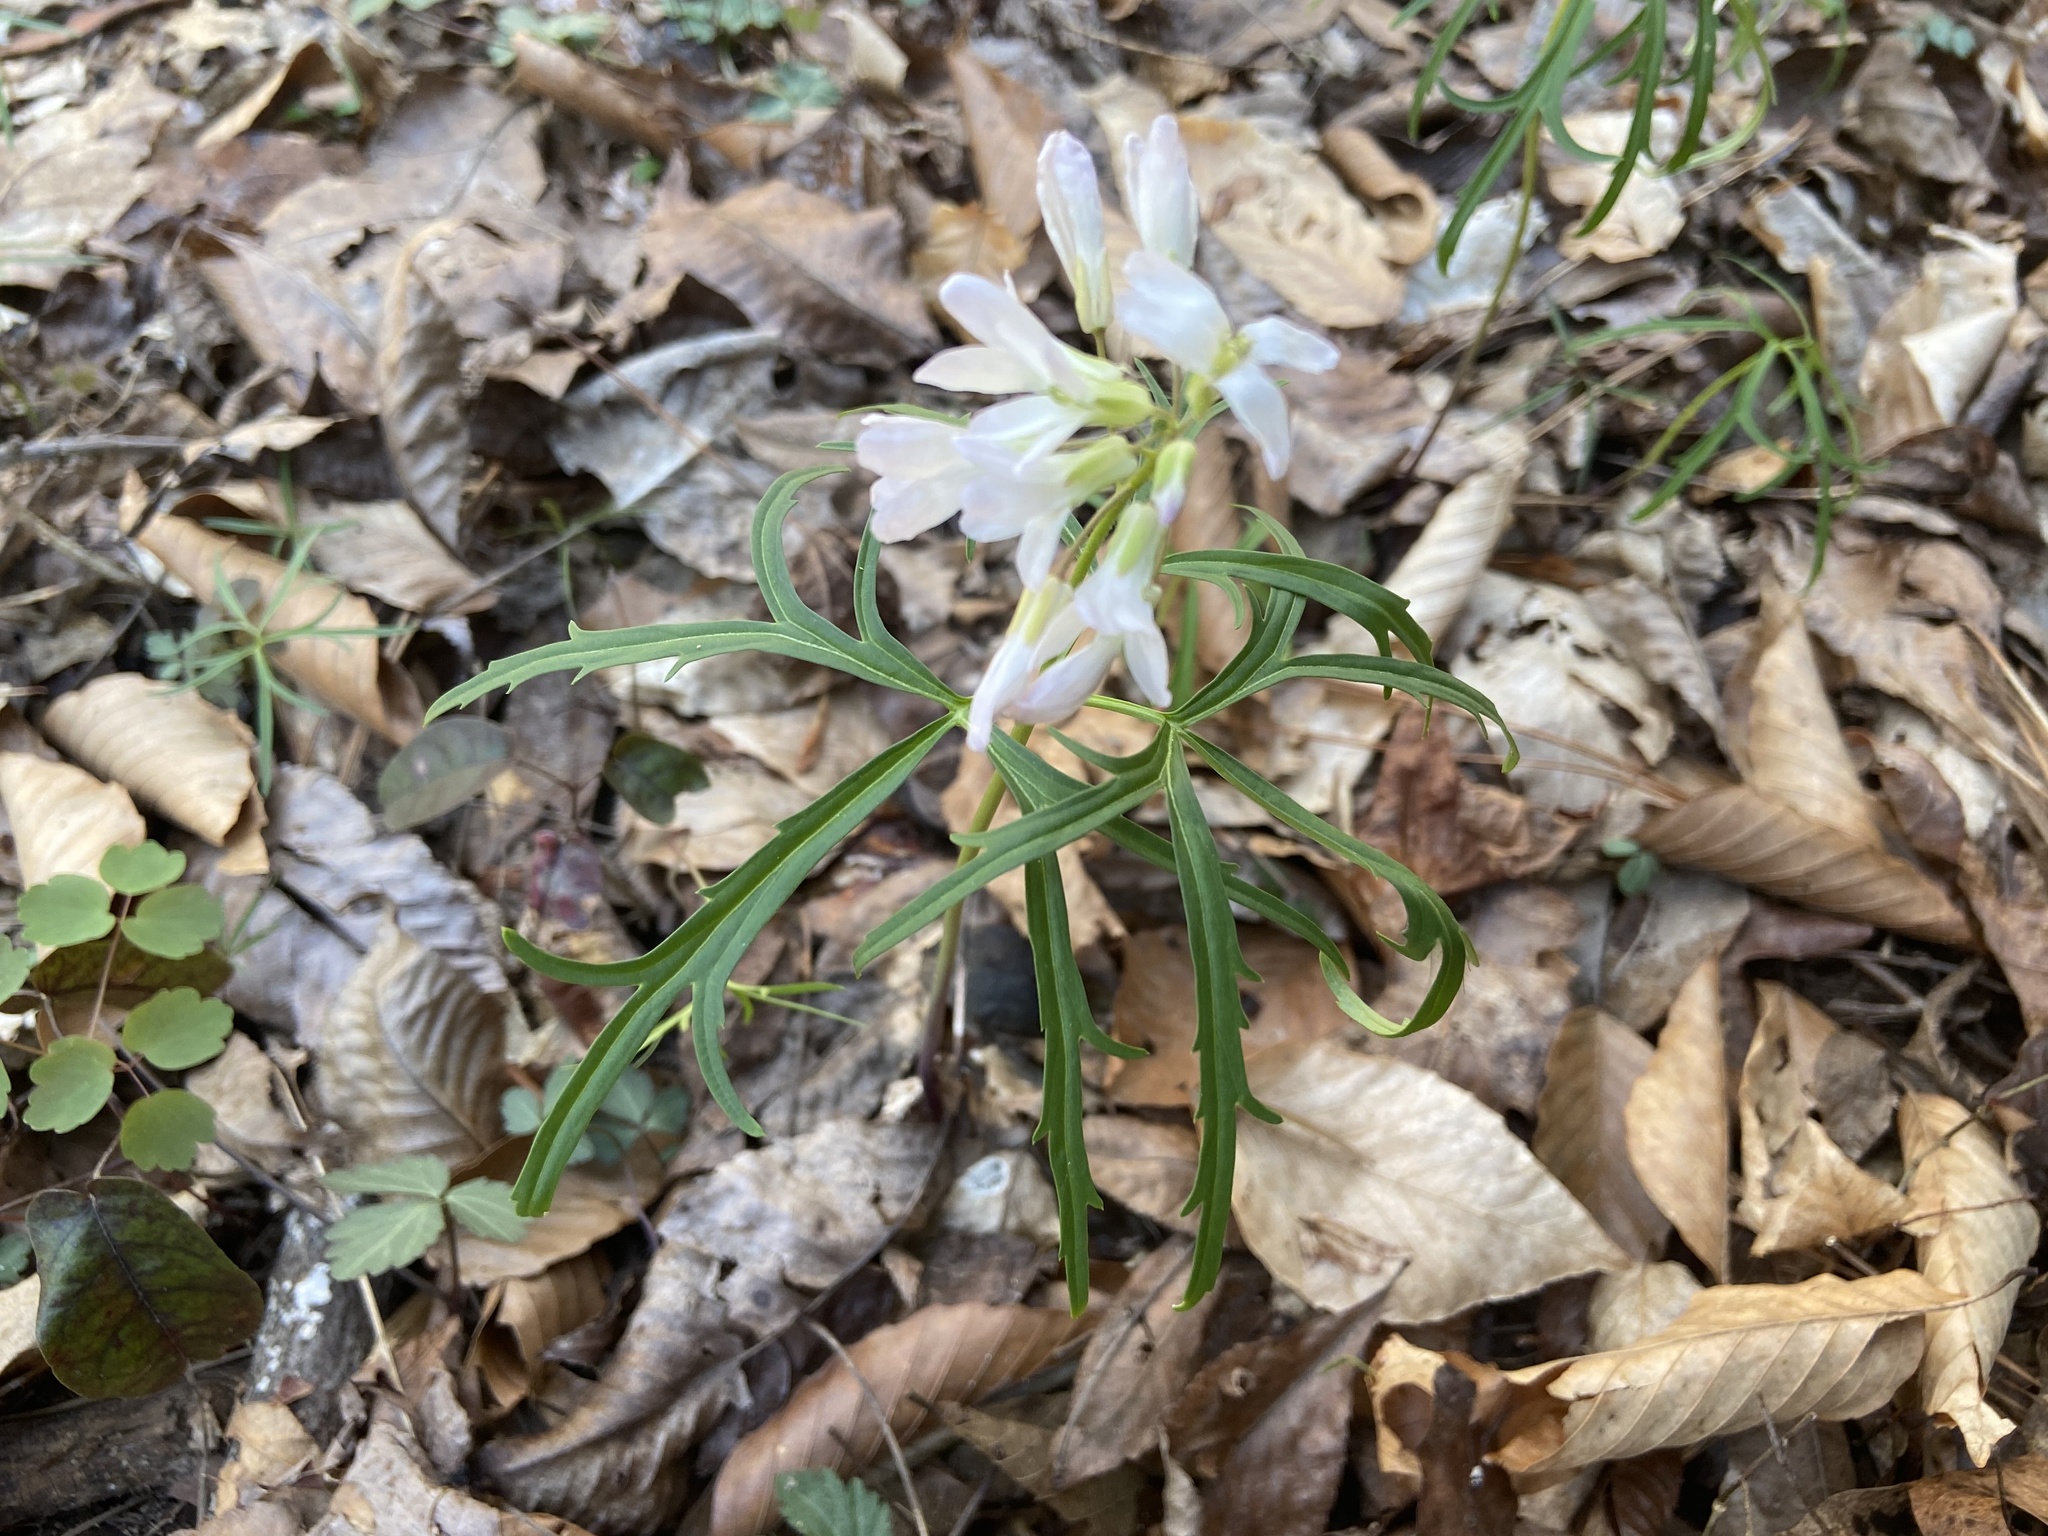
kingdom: Plantae
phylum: Tracheophyta
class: Magnoliopsida
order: Brassicales
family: Brassicaceae
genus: Cardamine
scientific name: Cardamine concatenata
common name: Cut-leaf toothcup
